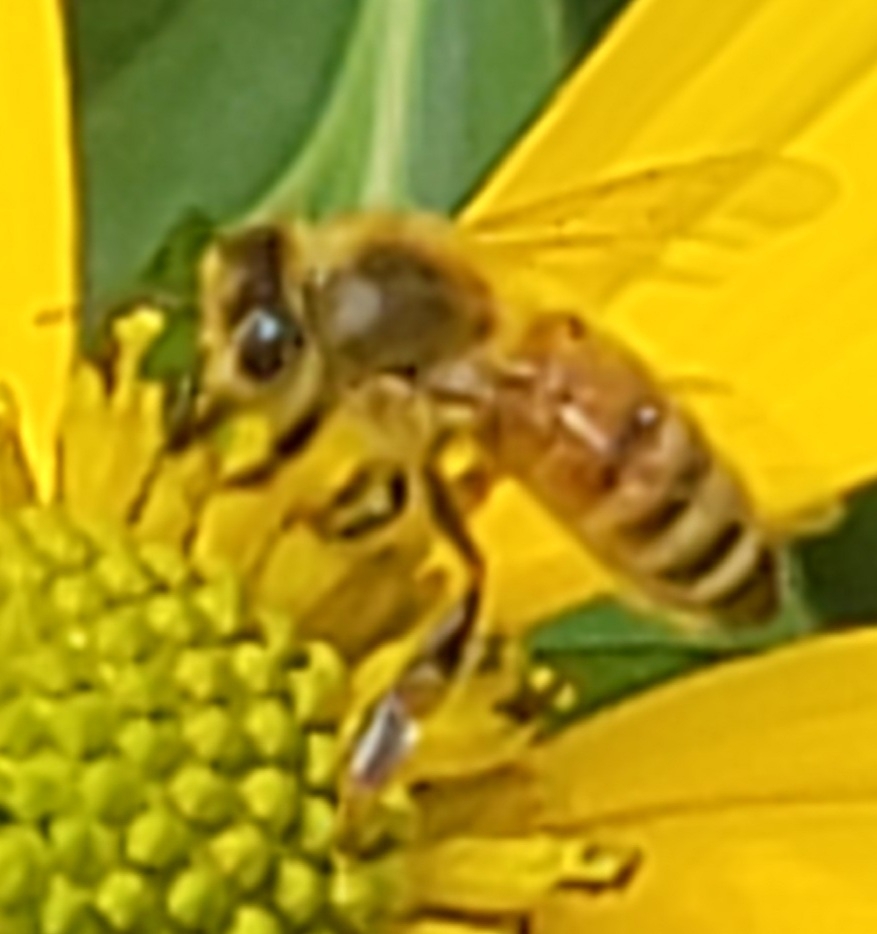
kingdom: Animalia
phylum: Arthropoda
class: Insecta
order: Hymenoptera
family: Apidae
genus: Apis
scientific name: Apis mellifera
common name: Honey bee
